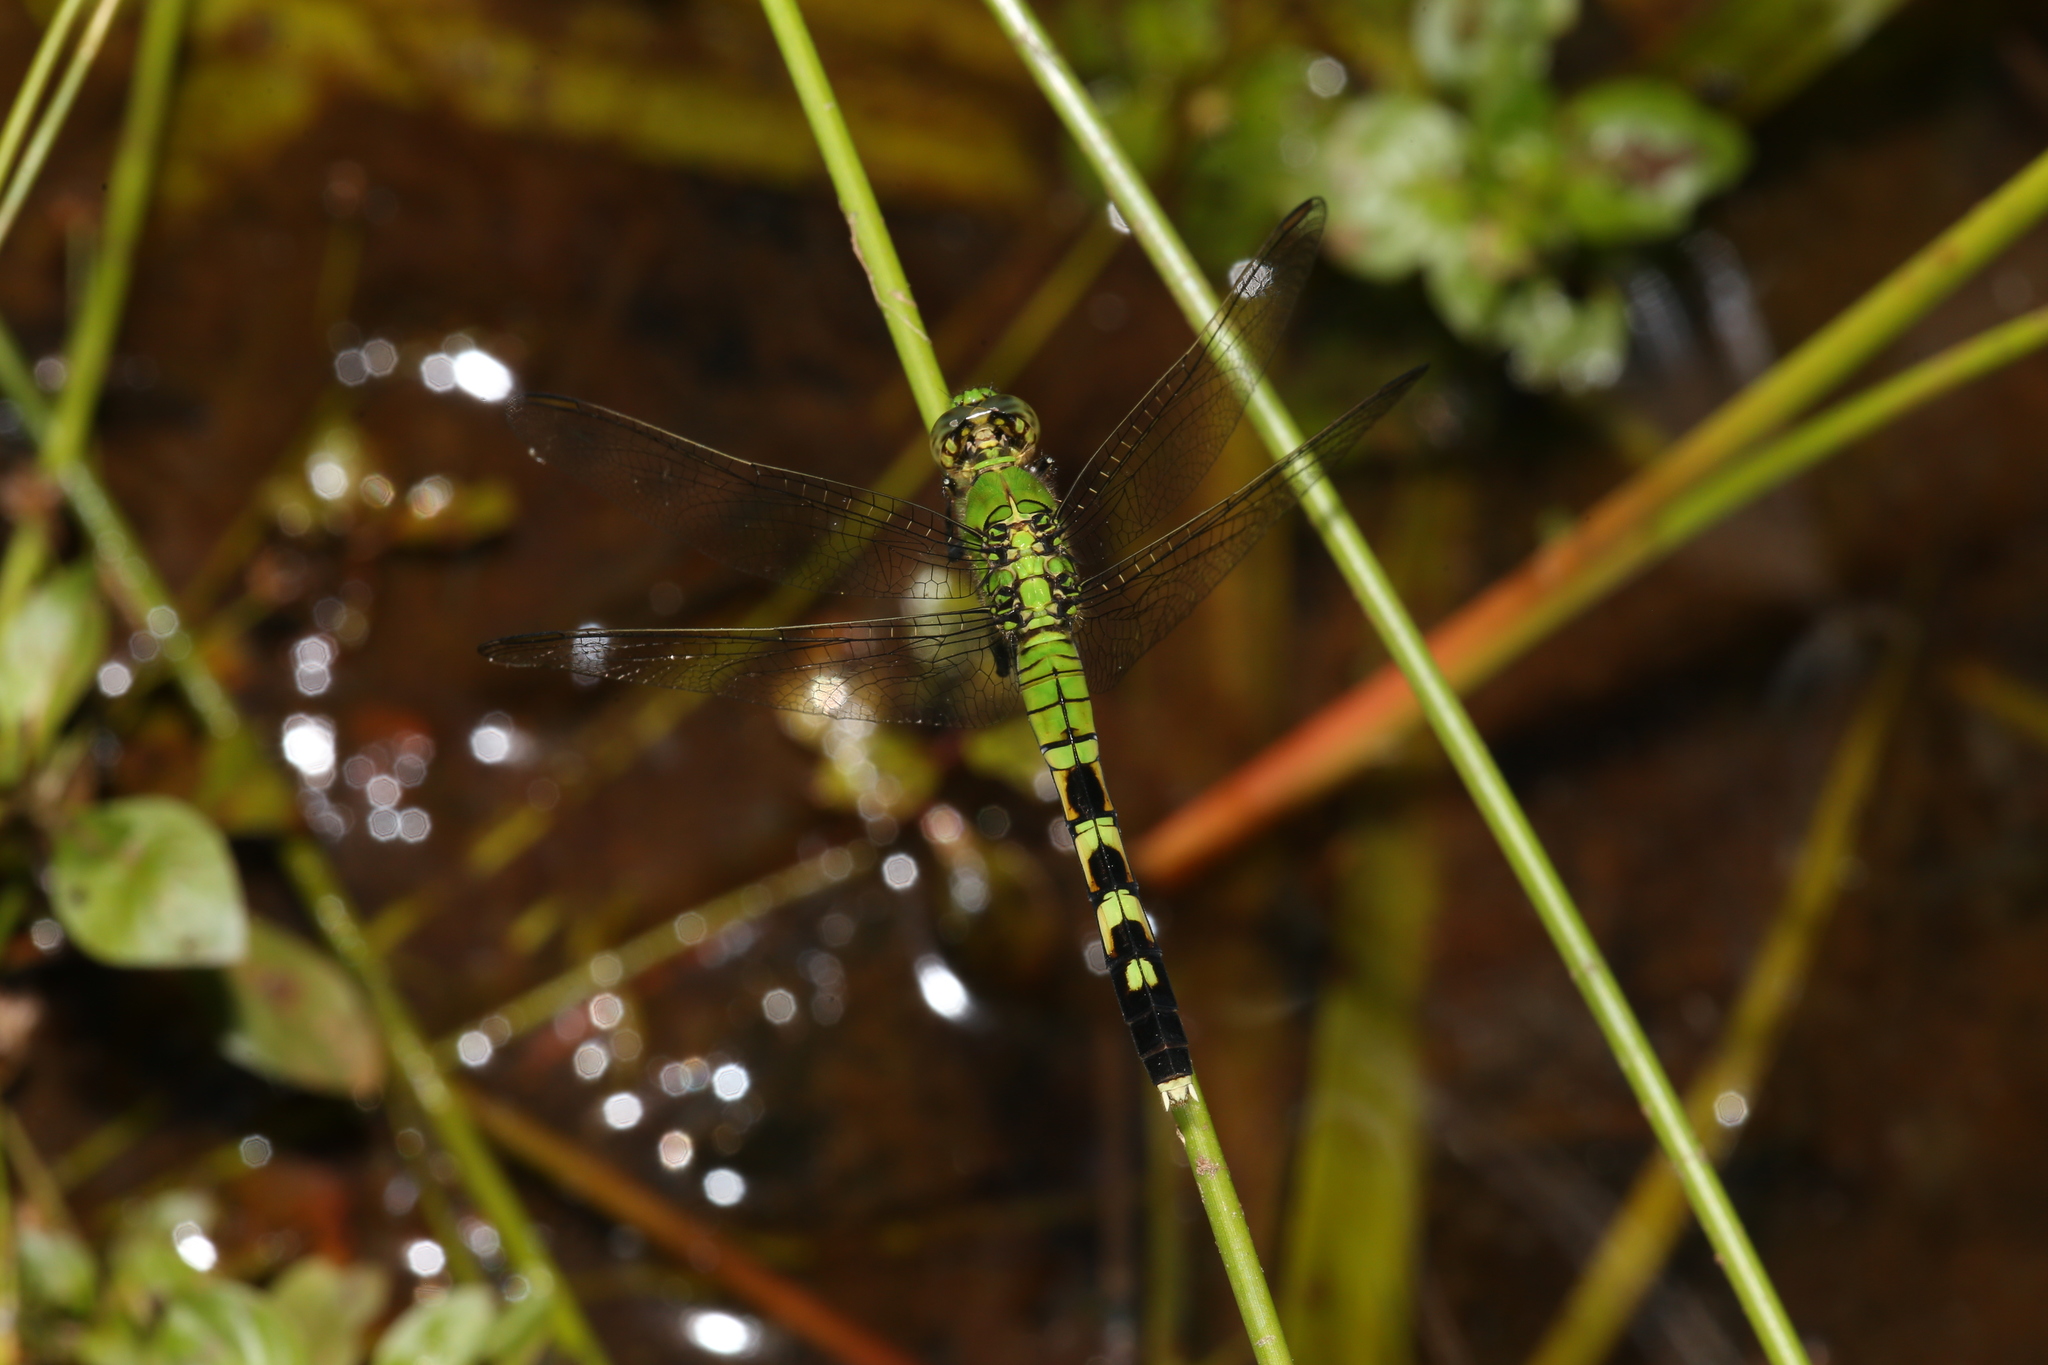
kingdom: Animalia
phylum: Arthropoda
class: Insecta
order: Odonata
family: Libellulidae
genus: Erythemis
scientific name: Erythemis simplicicollis
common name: Eastern pondhawk
